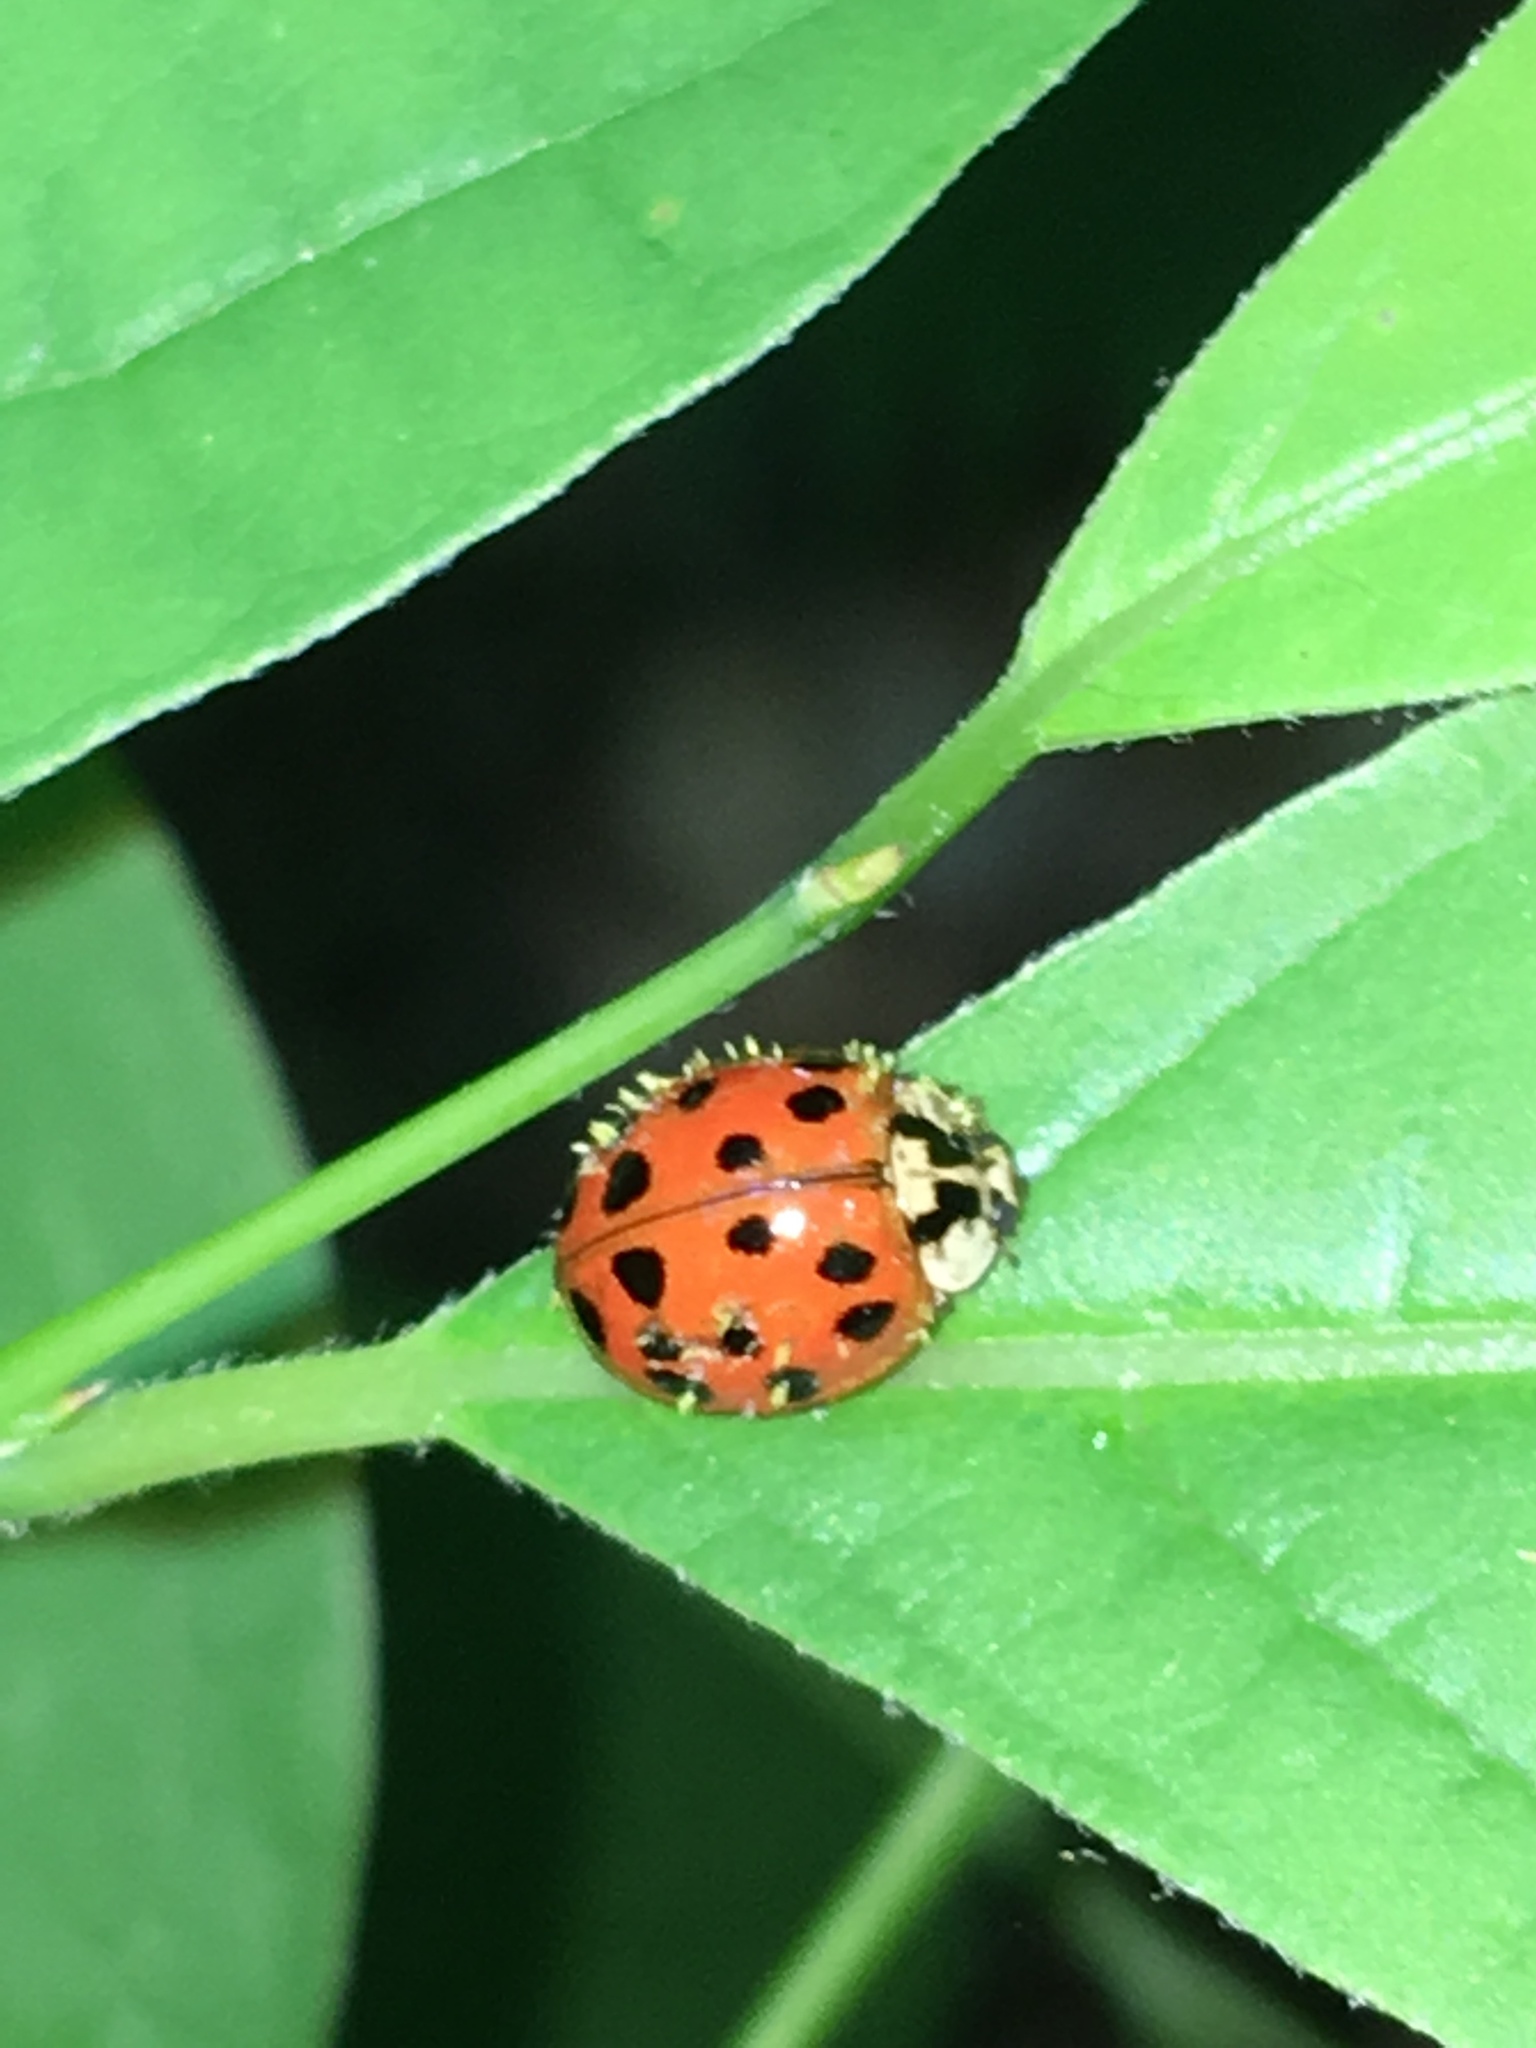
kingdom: Animalia
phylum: Arthropoda
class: Insecta
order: Coleoptera
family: Coccinellidae
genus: Harmonia
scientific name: Harmonia axyridis
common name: Harlequin ladybird
